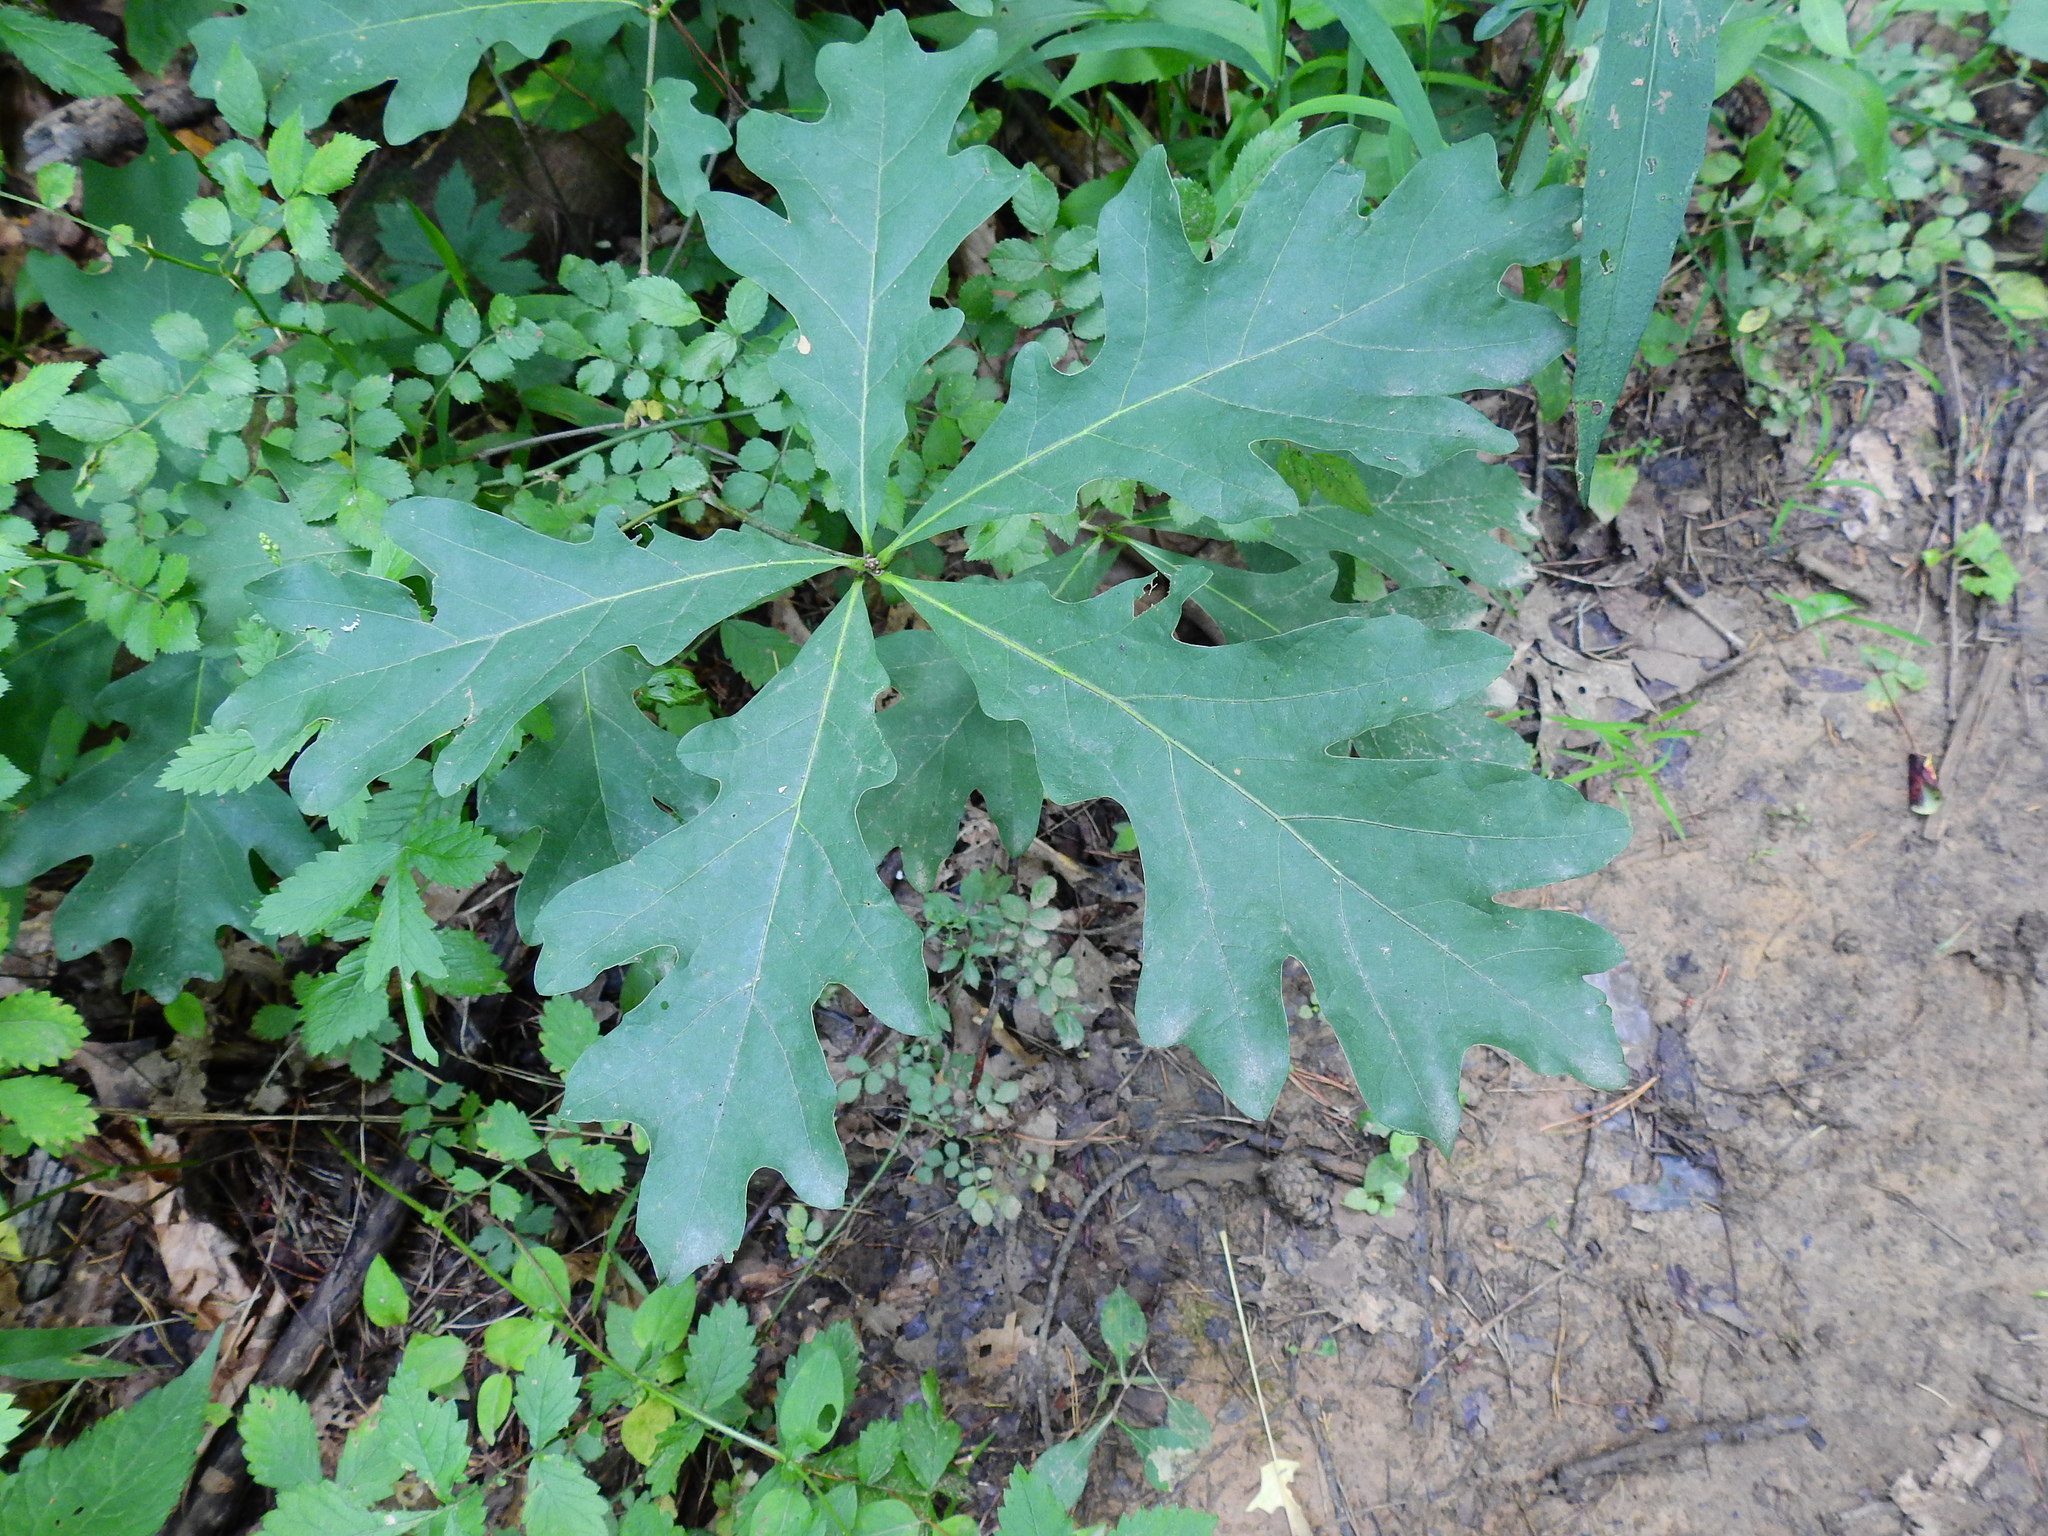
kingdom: Plantae
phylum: Tracheophyta
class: Magnoliopsida
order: Fagales
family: Fagaceae
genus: Quercus
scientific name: Quercus alba
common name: White oak
